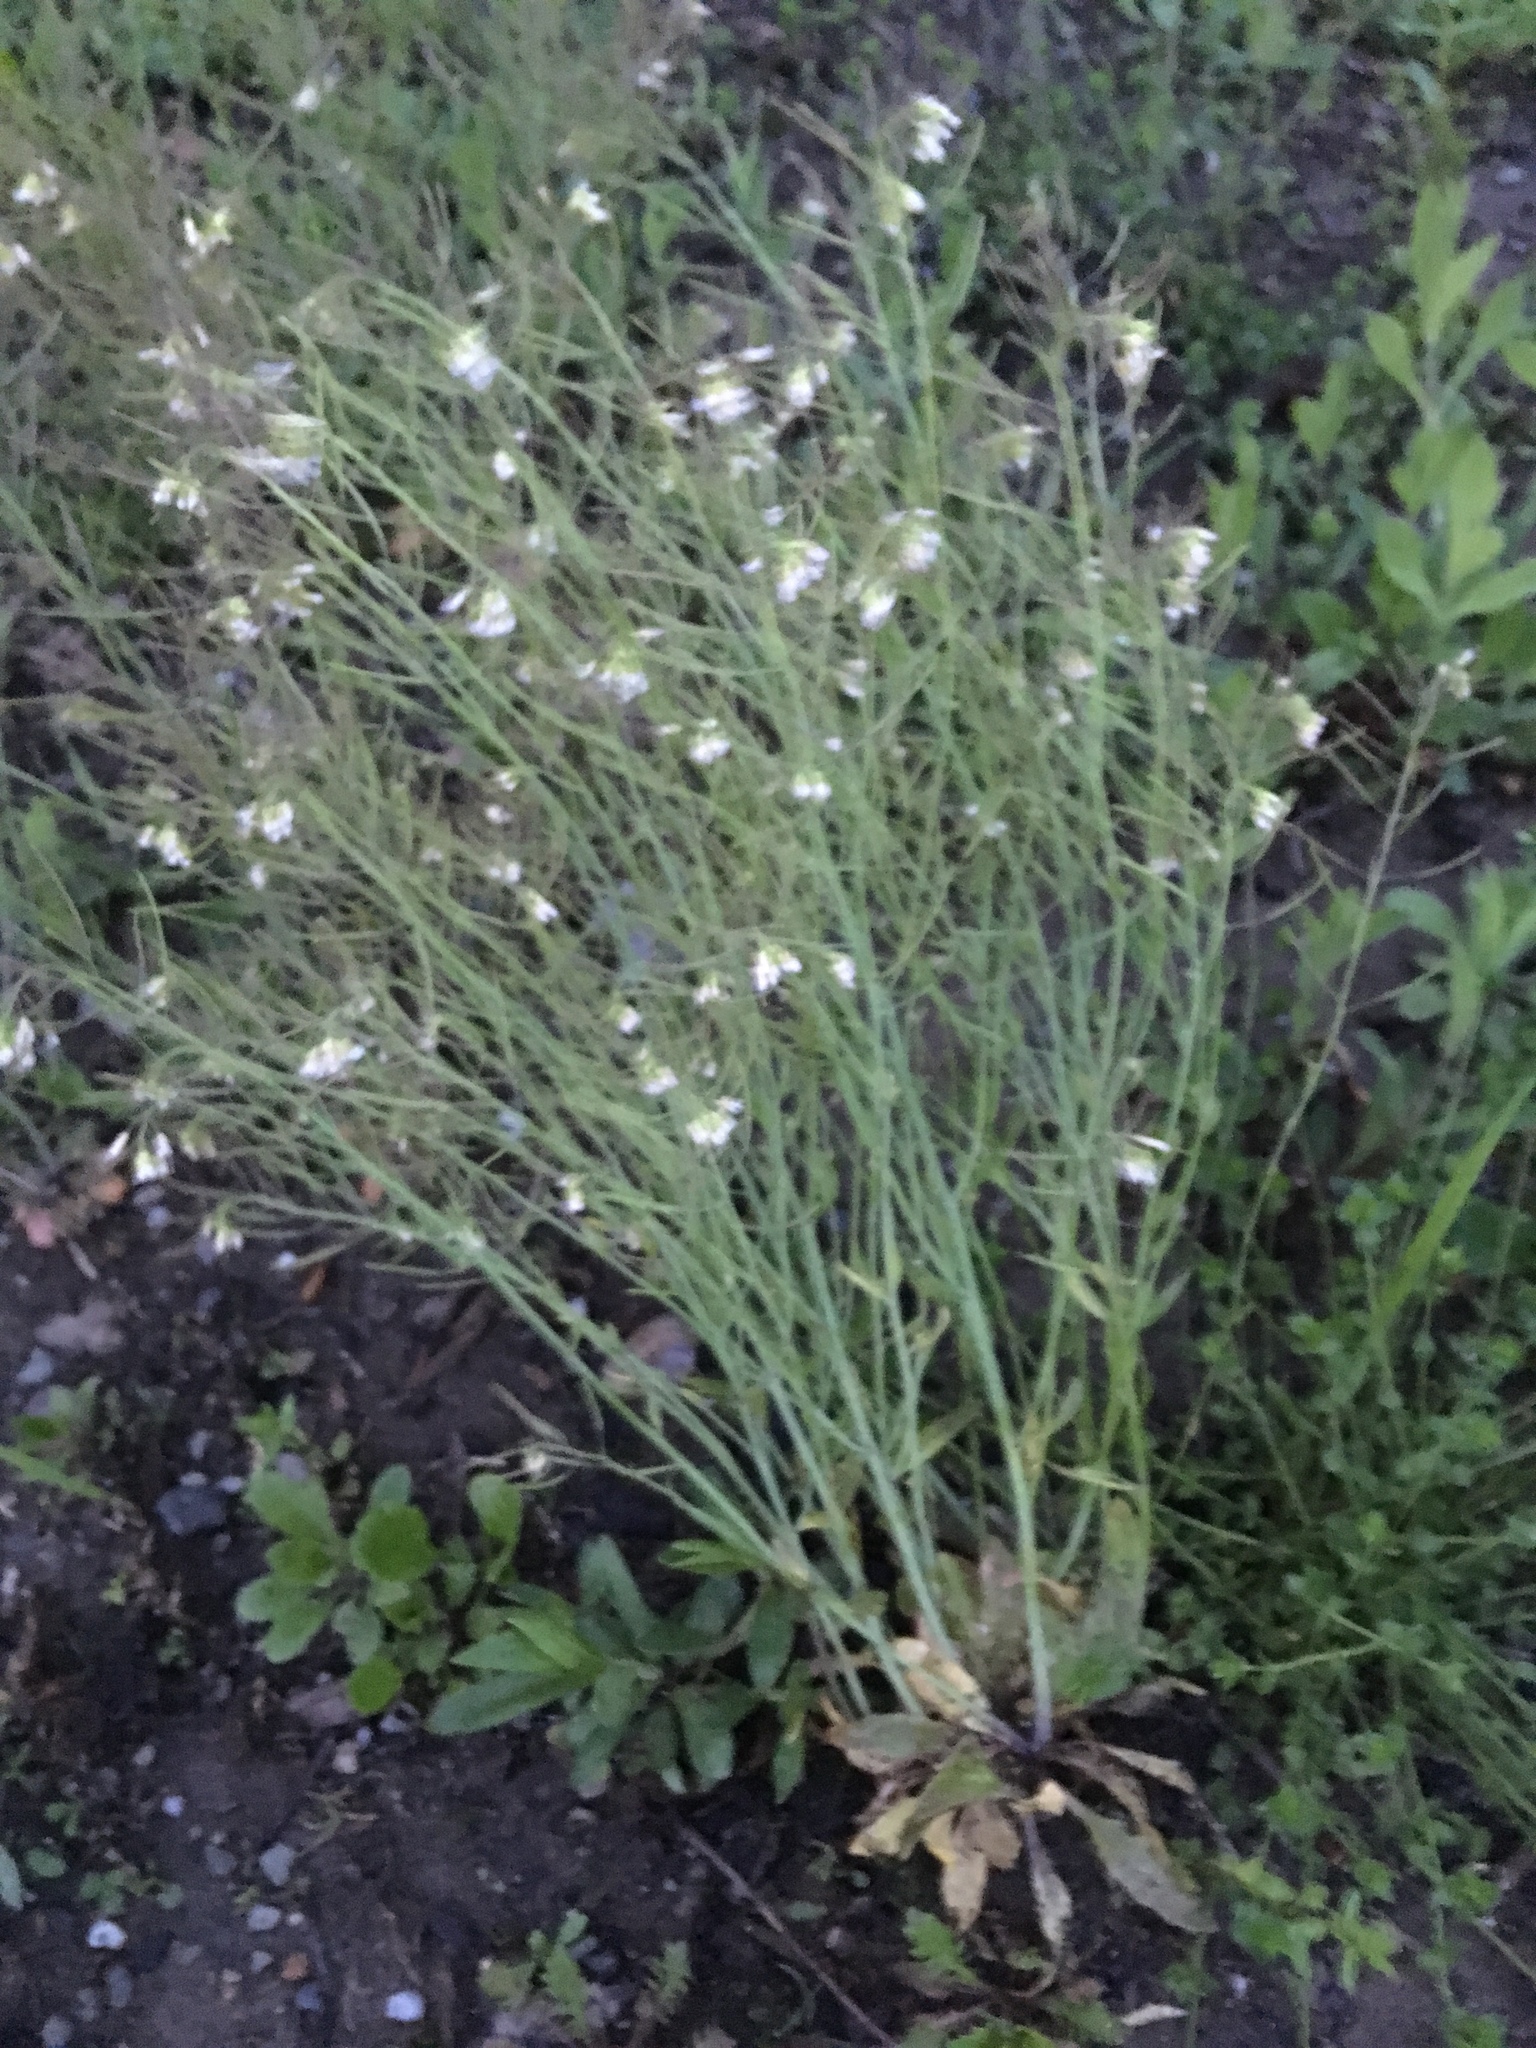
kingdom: Plantae
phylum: Tracheophyta
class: Magnoliopsida
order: Brassicales
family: Brassicaceae
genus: Arabidopsis
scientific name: Arabidopsis thaliana
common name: Thale cress
